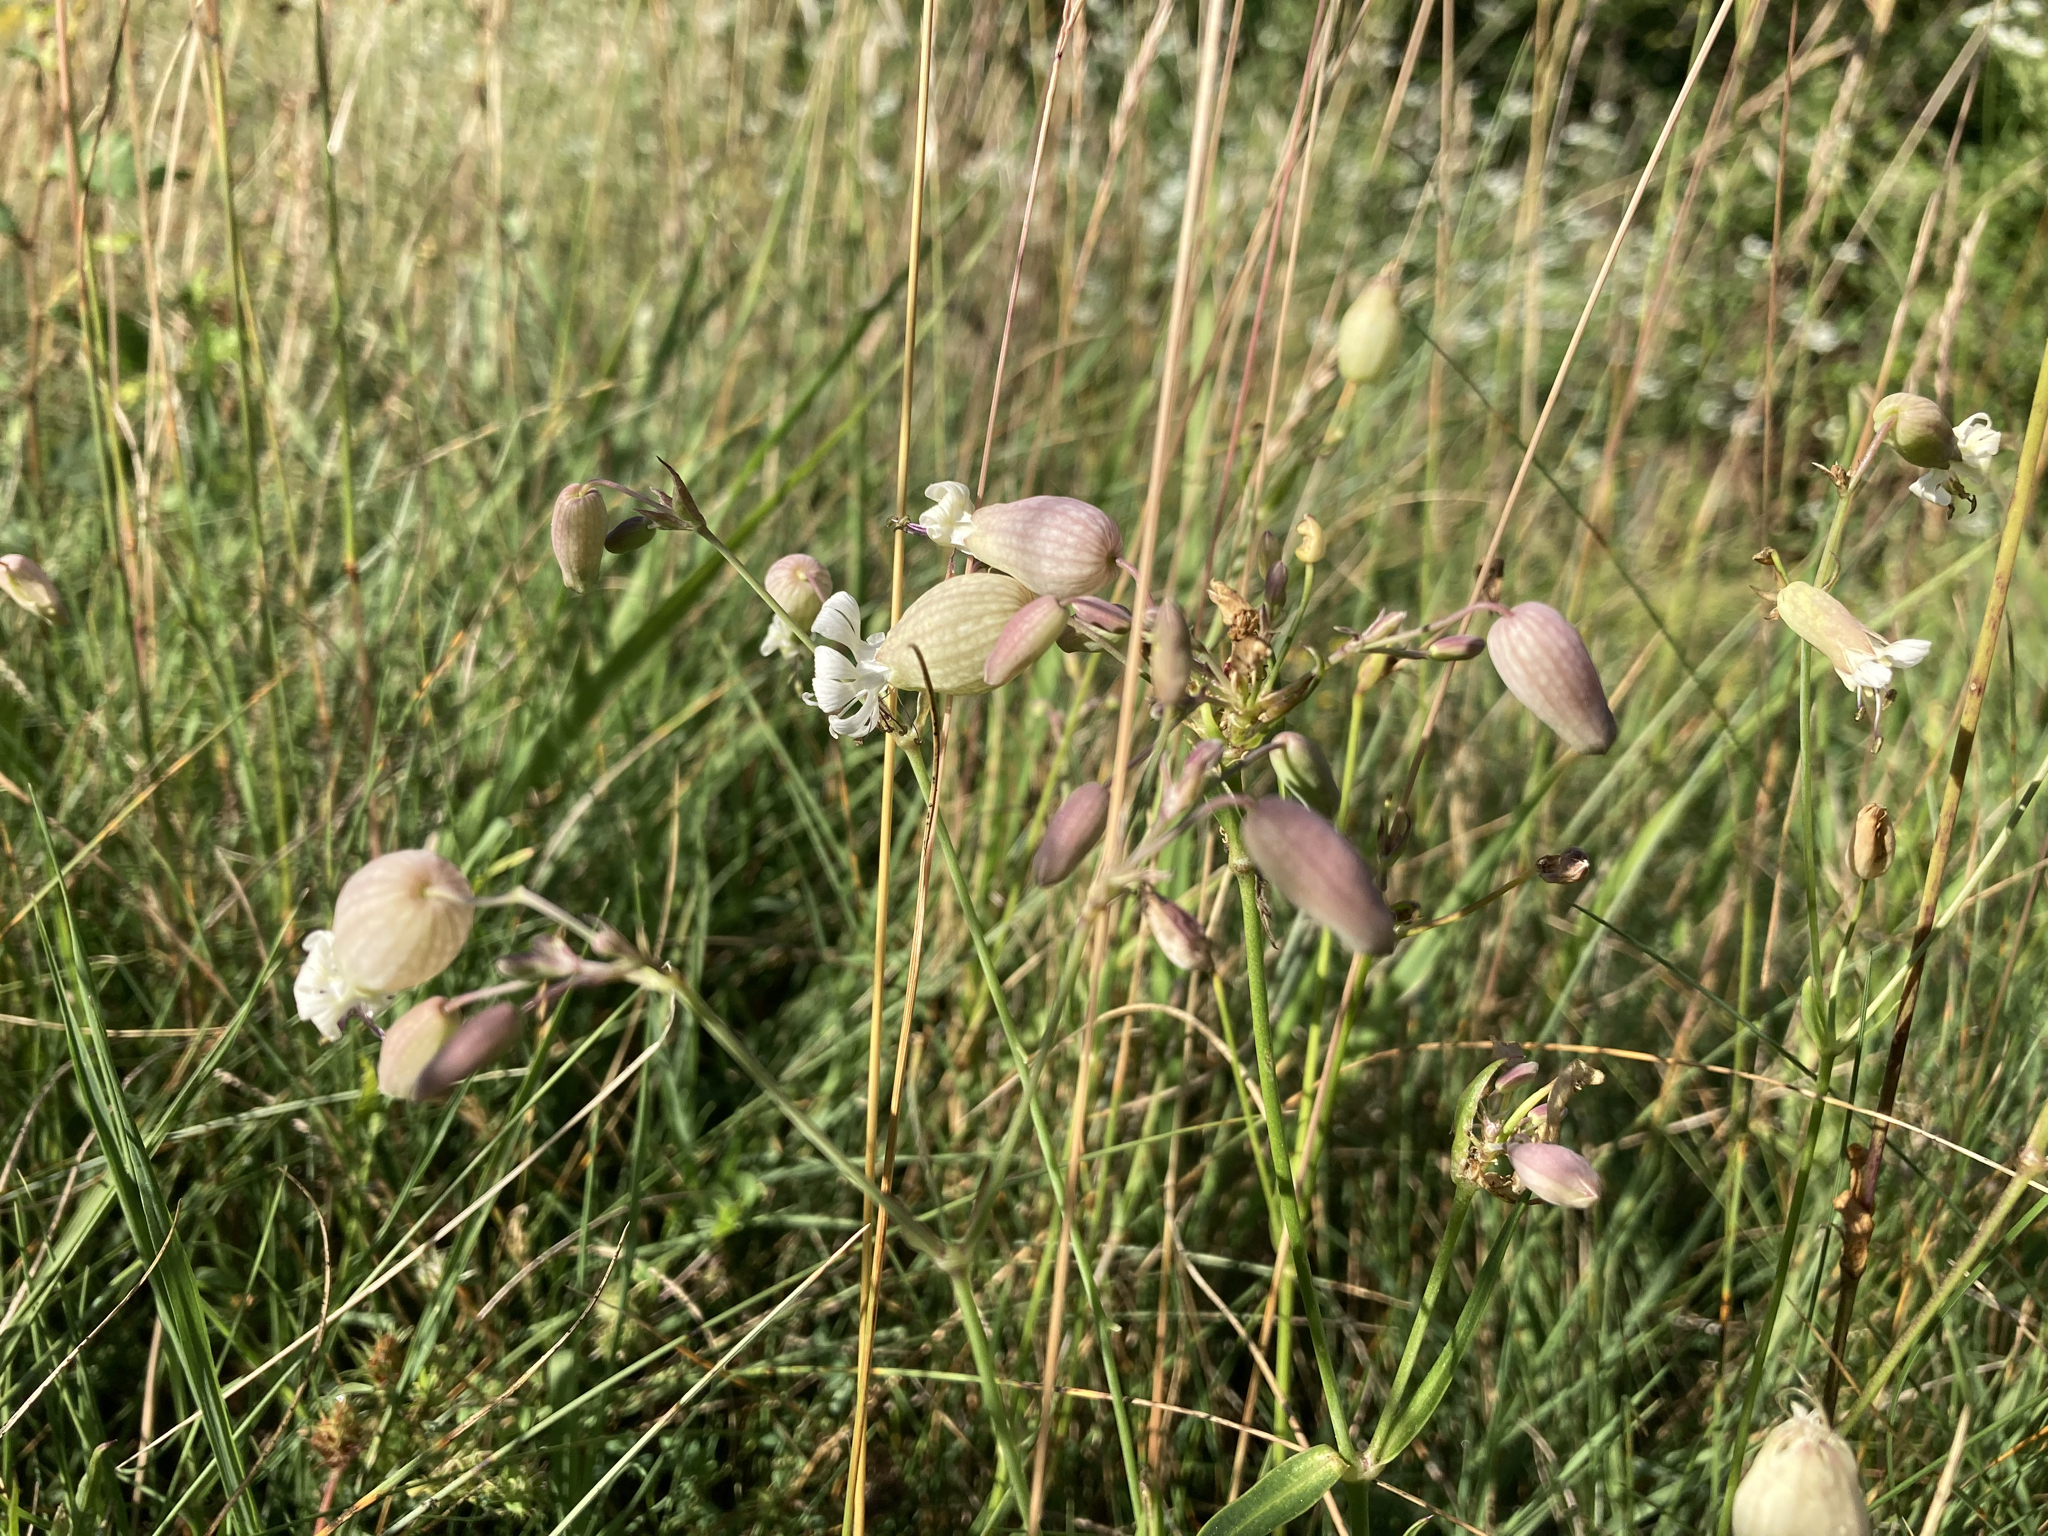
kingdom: Plantae
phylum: Tracheophyta
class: Magnoliopsida
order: Caryophyllales
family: Caryophyllaceae
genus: Silene
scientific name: Silene vulgaris
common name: Bladder campion
